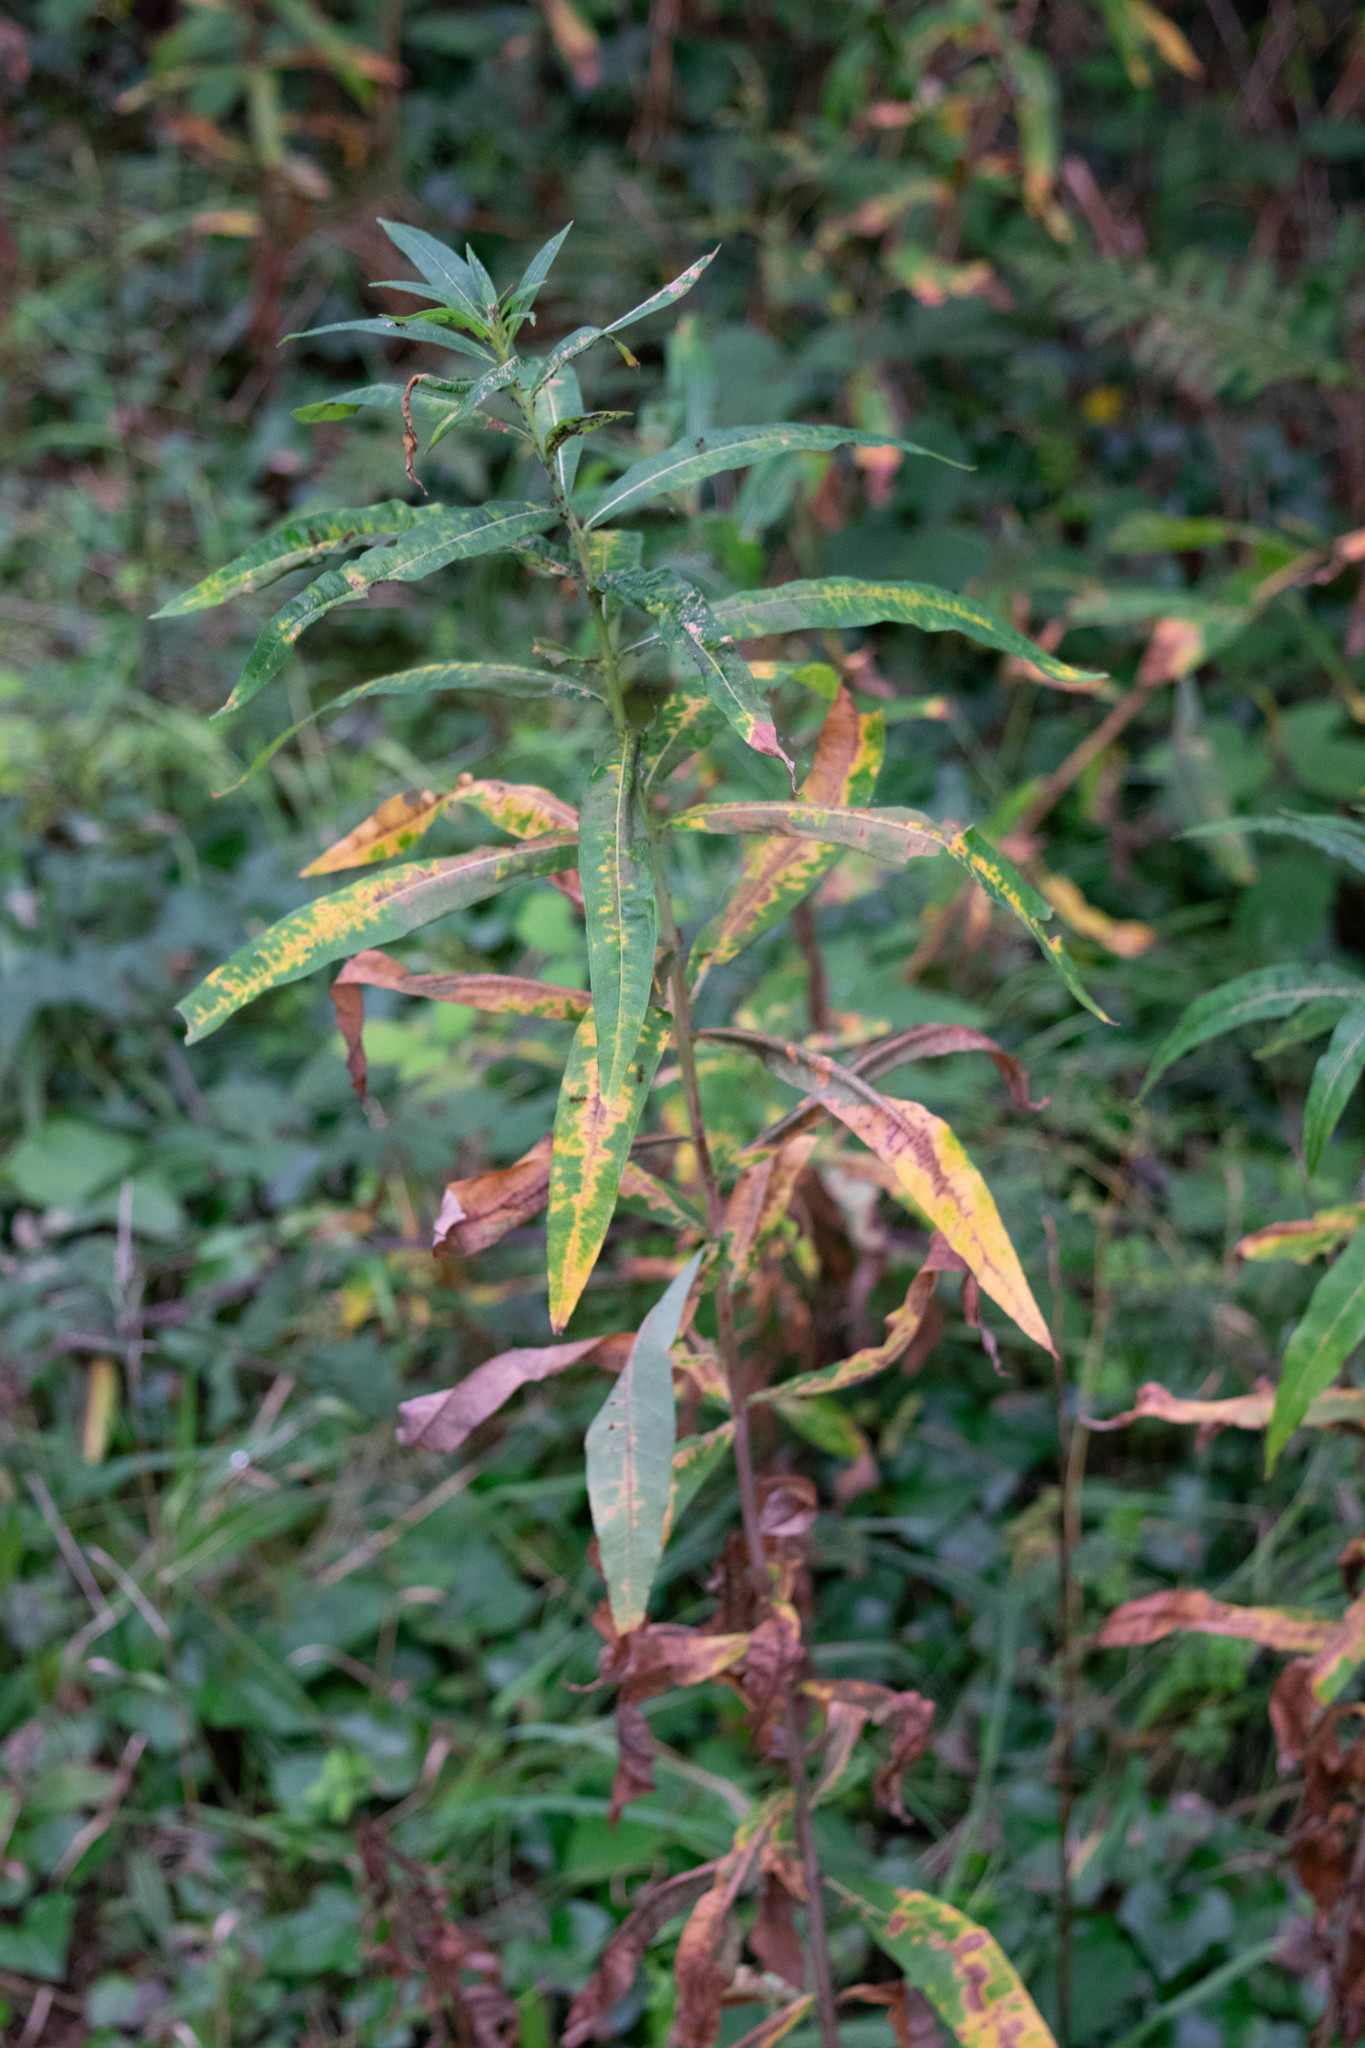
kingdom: Plantae
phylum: Tracheophyta
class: Magnoliopsida
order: Myrtales
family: Onagraceae
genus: Chamaenerion
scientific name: Chamaenerion angustifolium
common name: Fireweed
